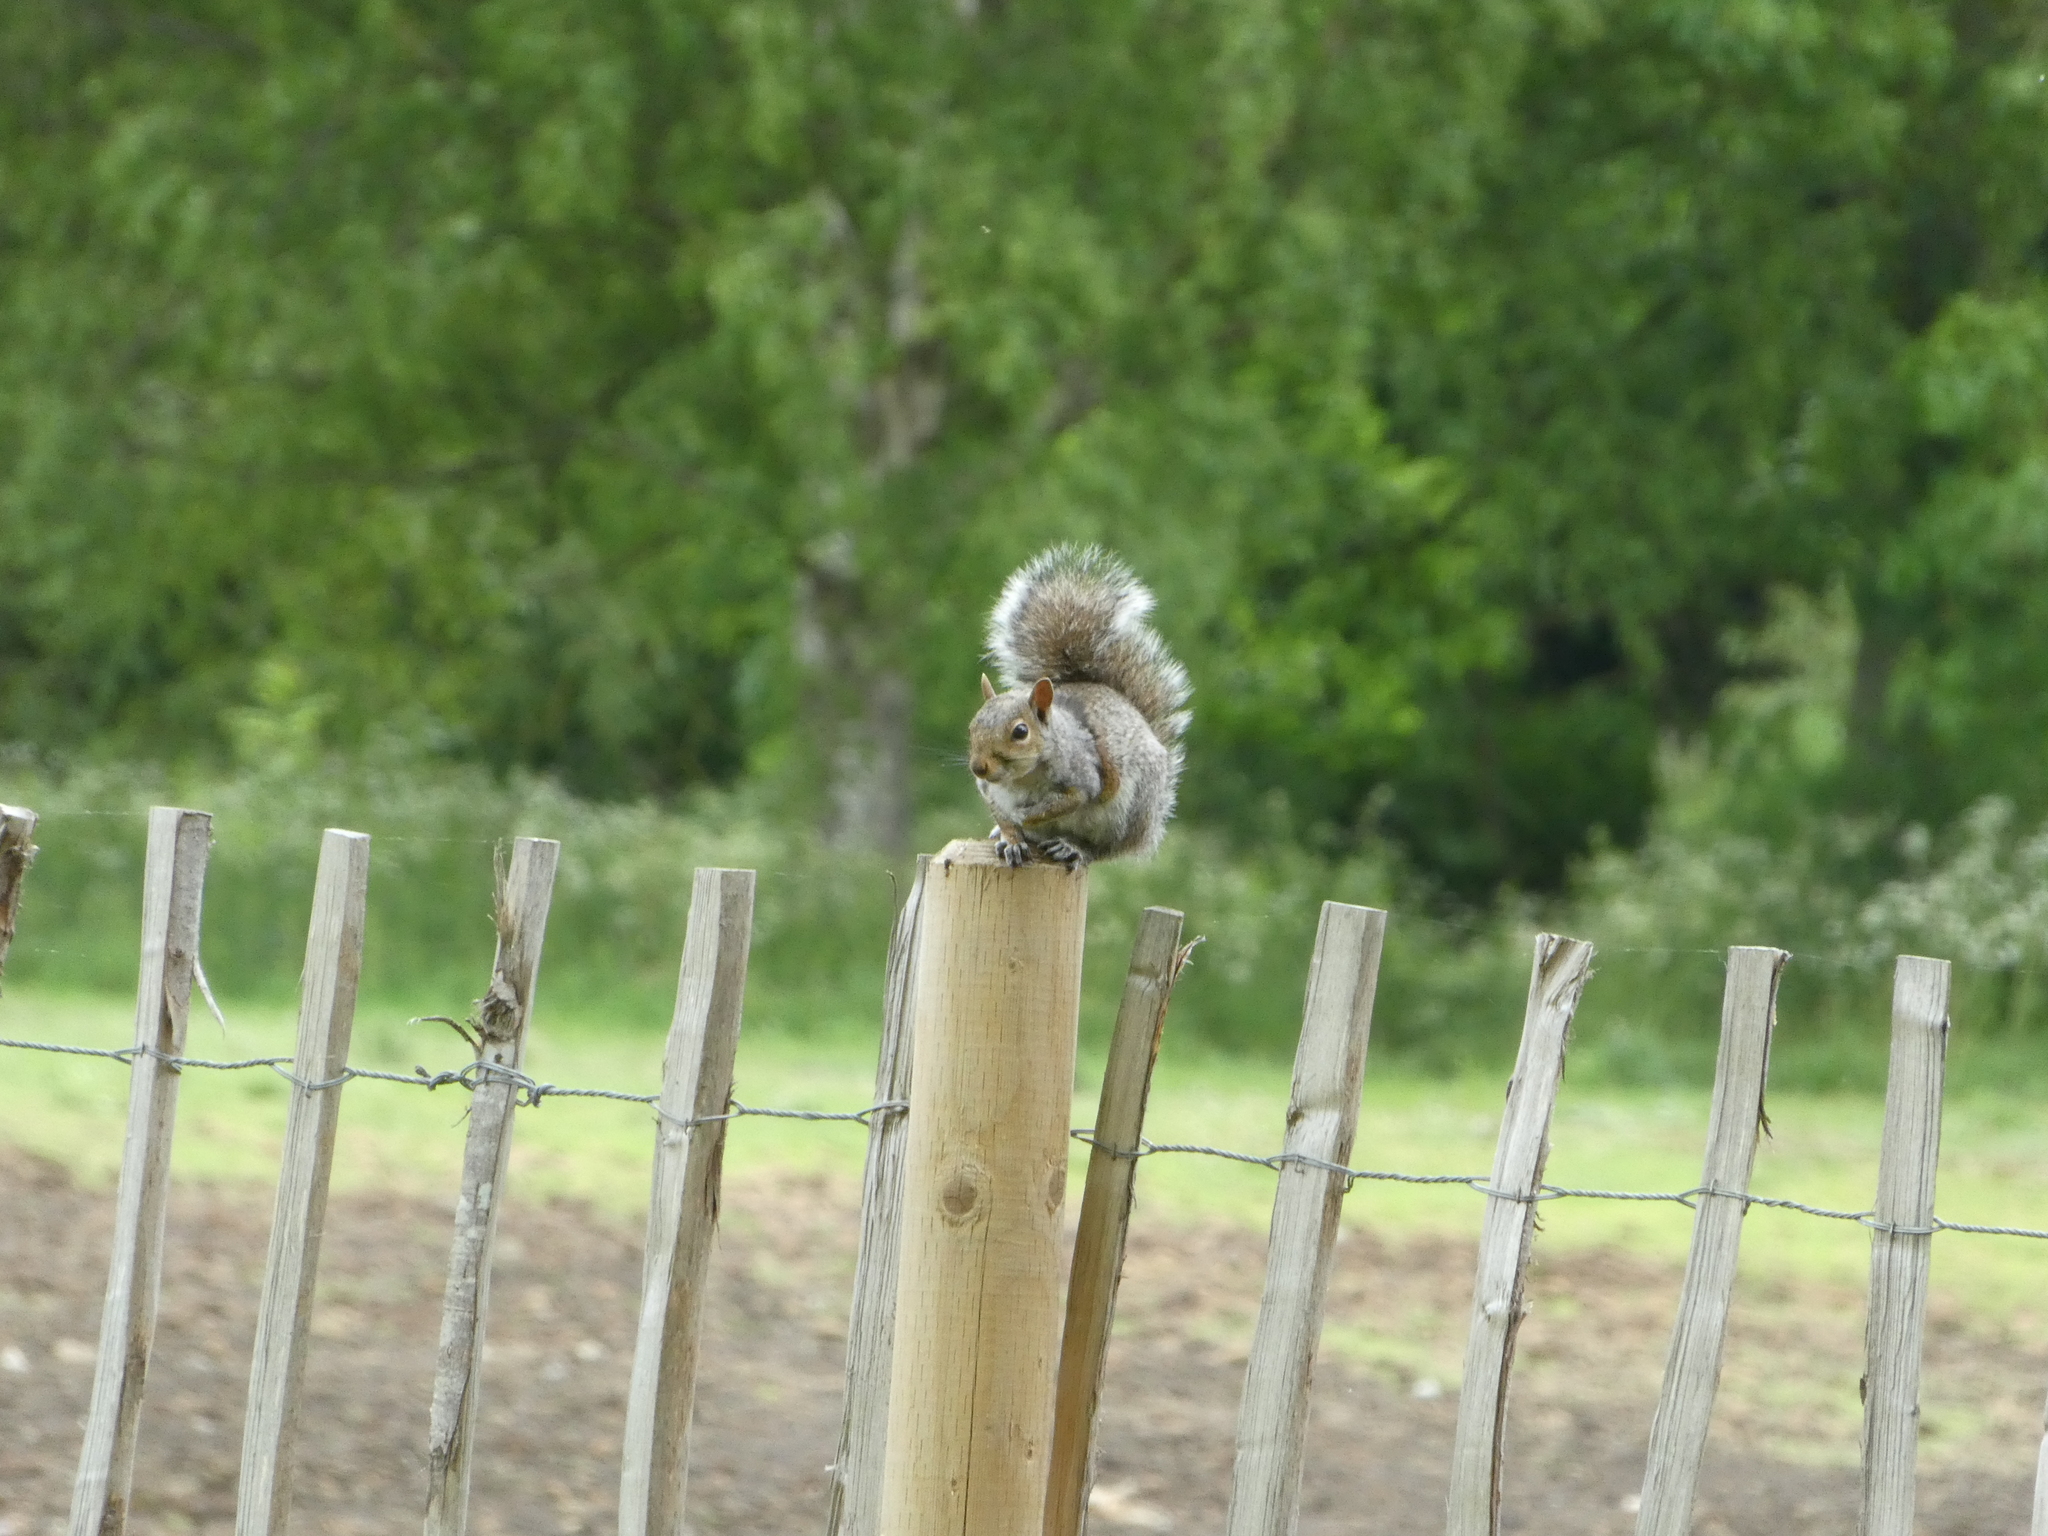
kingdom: Animalia
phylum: Chordata
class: Mammalia
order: Rodentia
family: Sciuridae
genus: Sciurus
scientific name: Sciurus carolinensis
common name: Eastern gray squirrel
